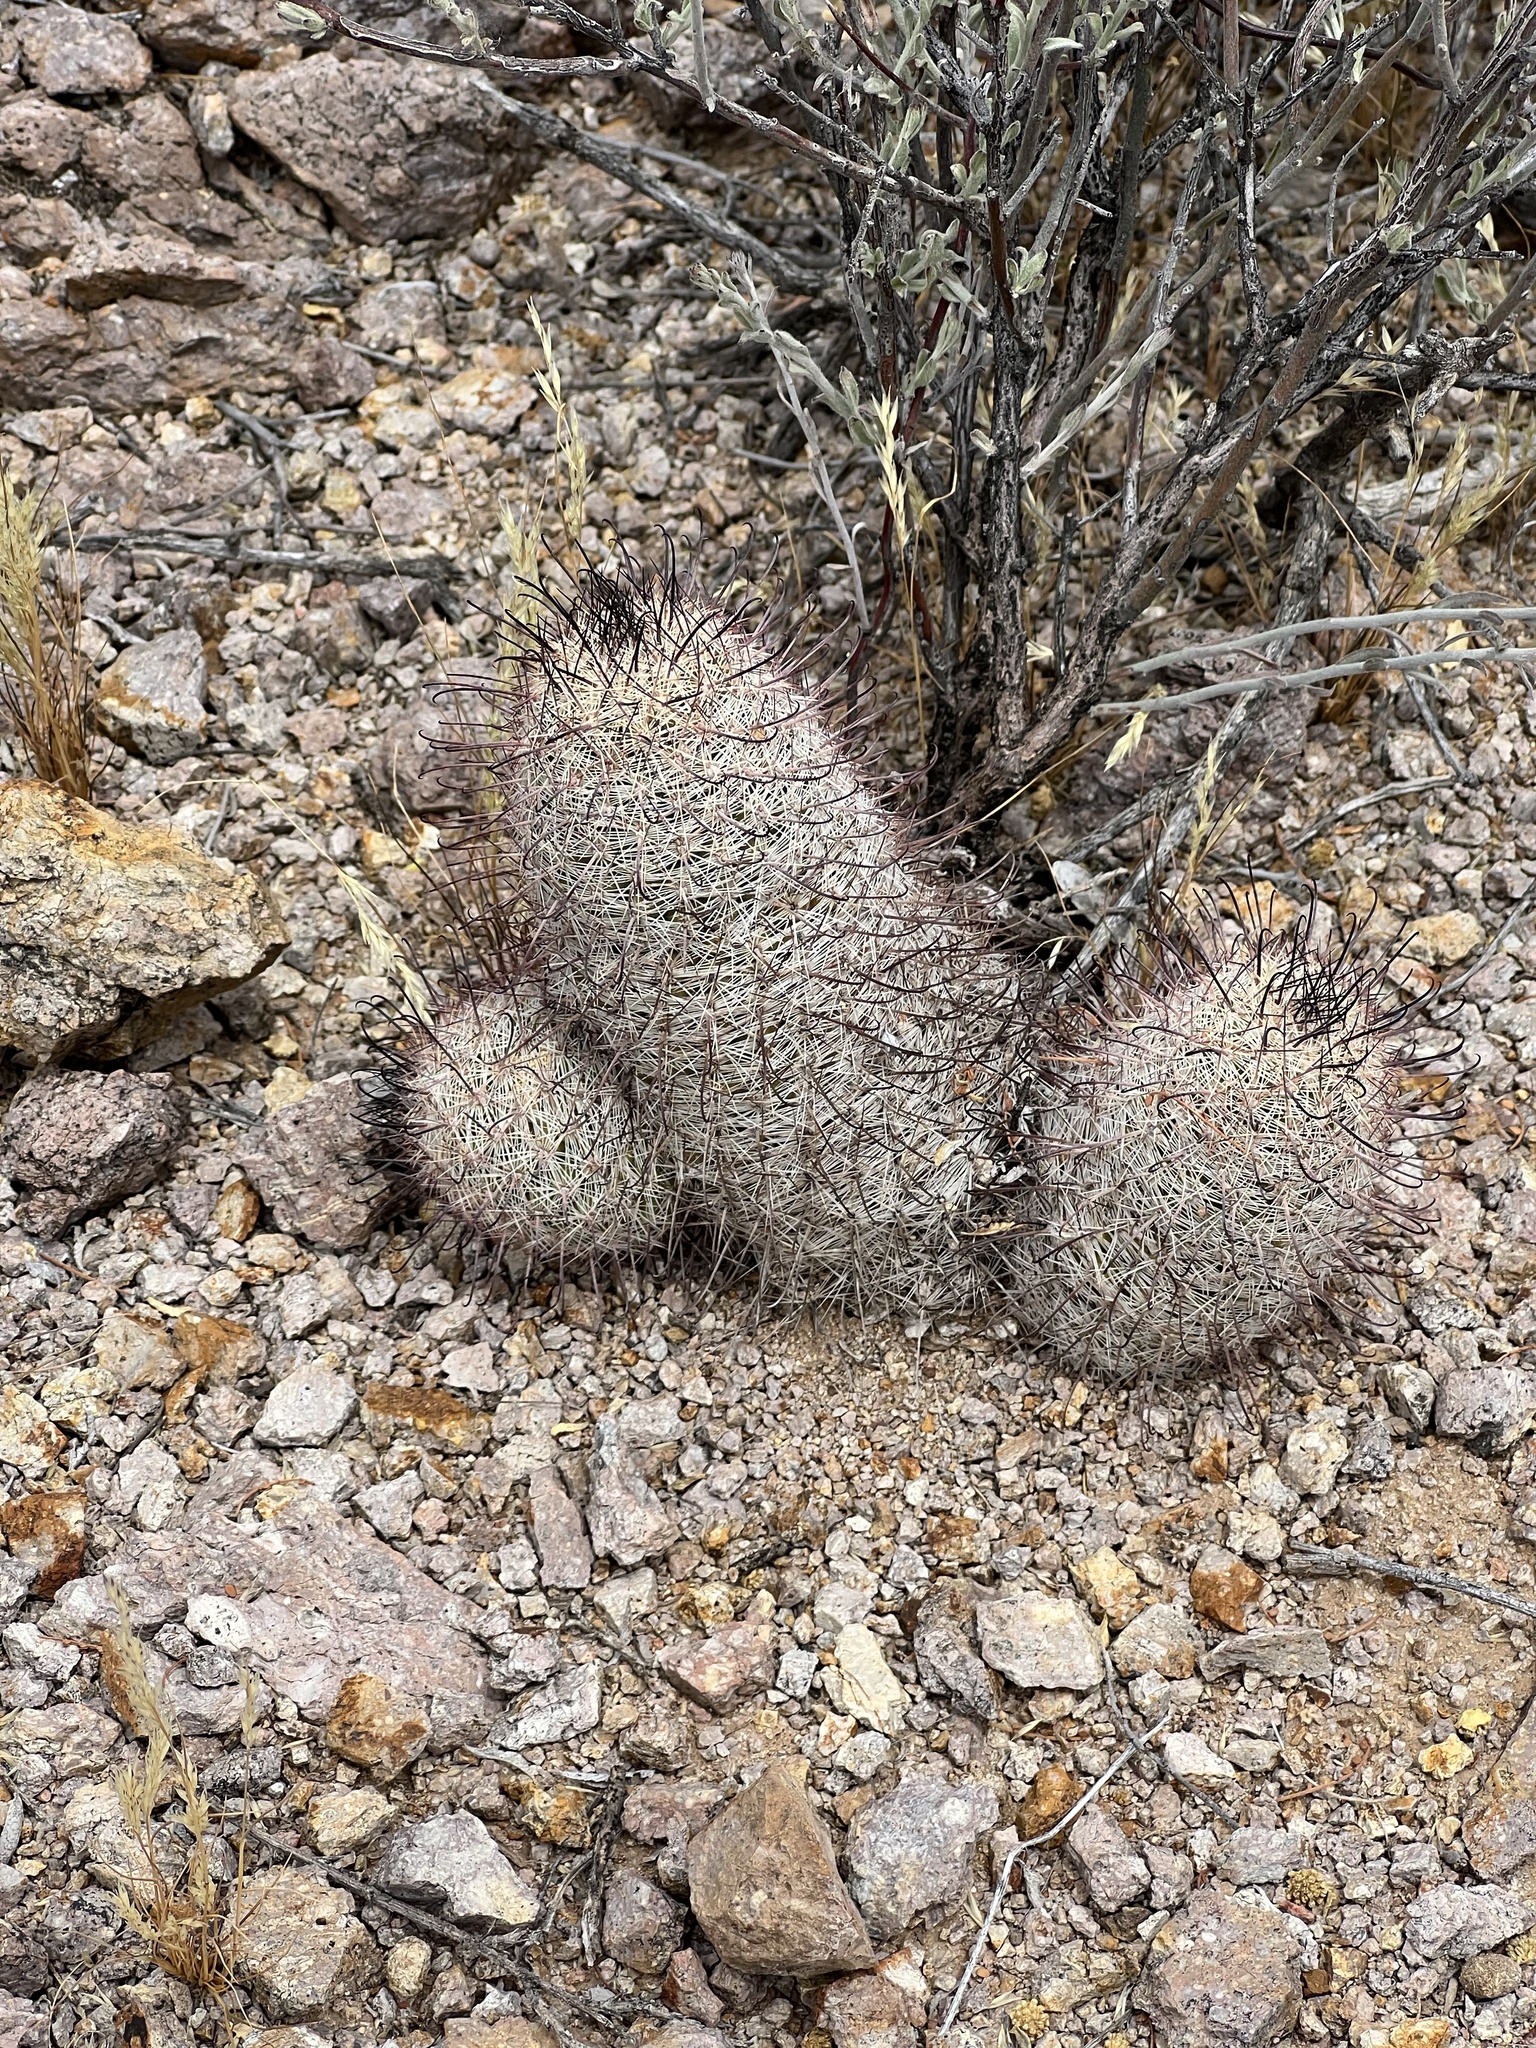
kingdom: Plantae
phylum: Tracheophyta
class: Magnoliopsida
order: Caryophyllales
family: Cactaceae
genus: Cochemiea
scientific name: Cochemiea grahamii
